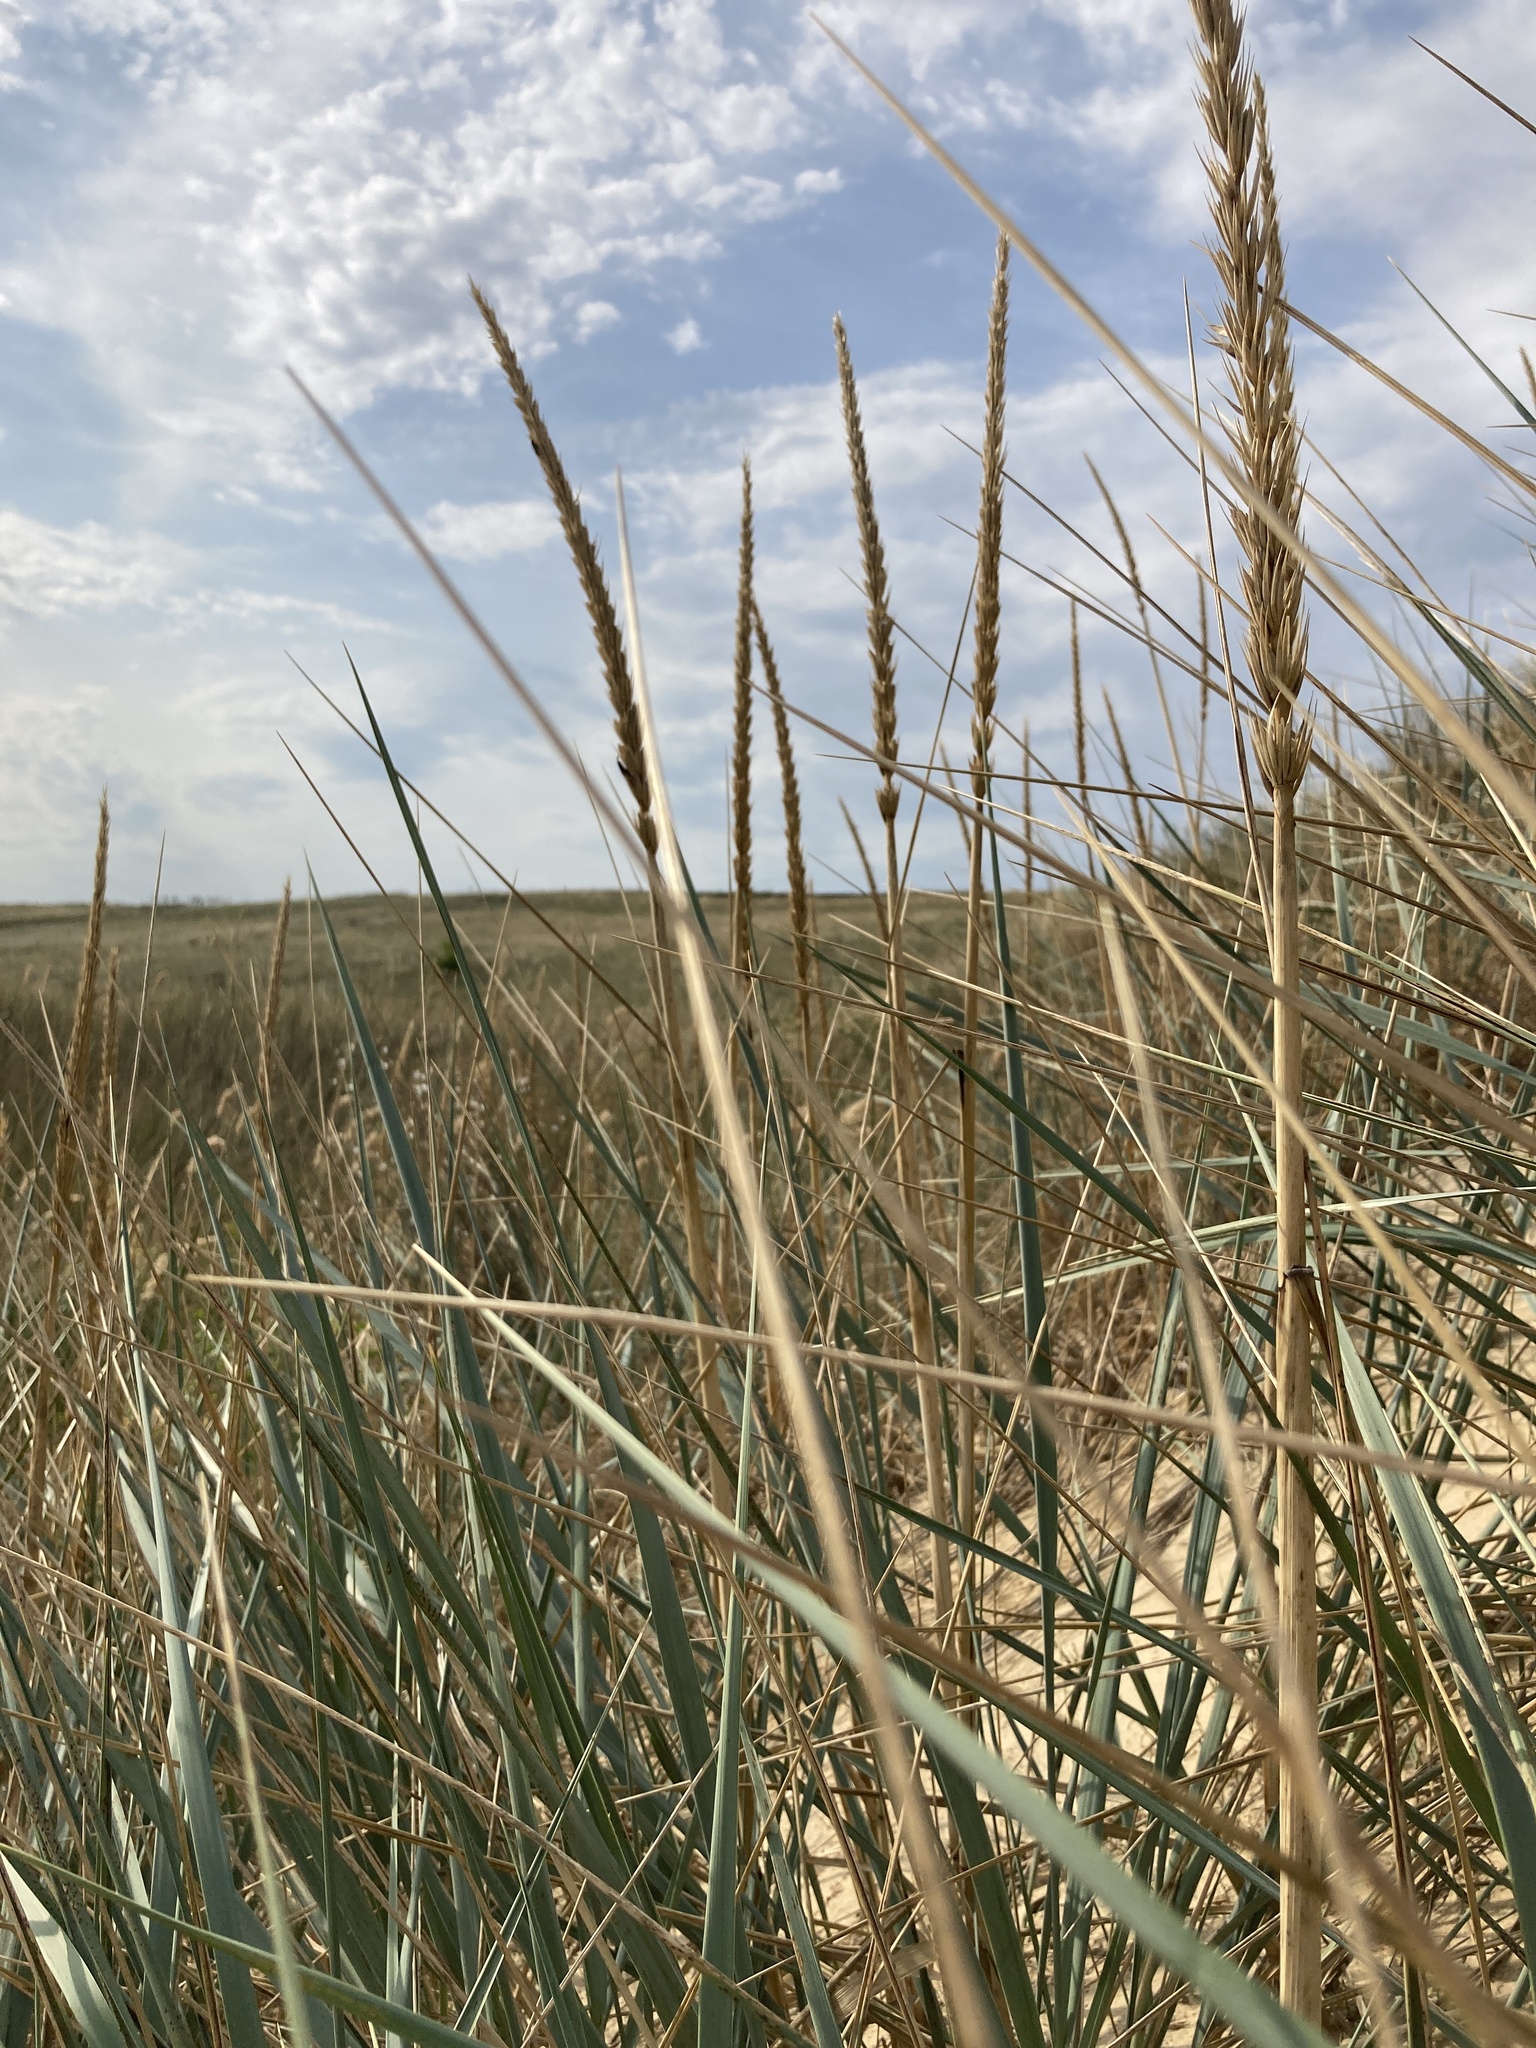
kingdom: Plantae
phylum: Tracheophyta
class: Liliopsida
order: Poales
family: Poaceae
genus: Leymus
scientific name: Leymus racemosus
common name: Mammoth wildrye
